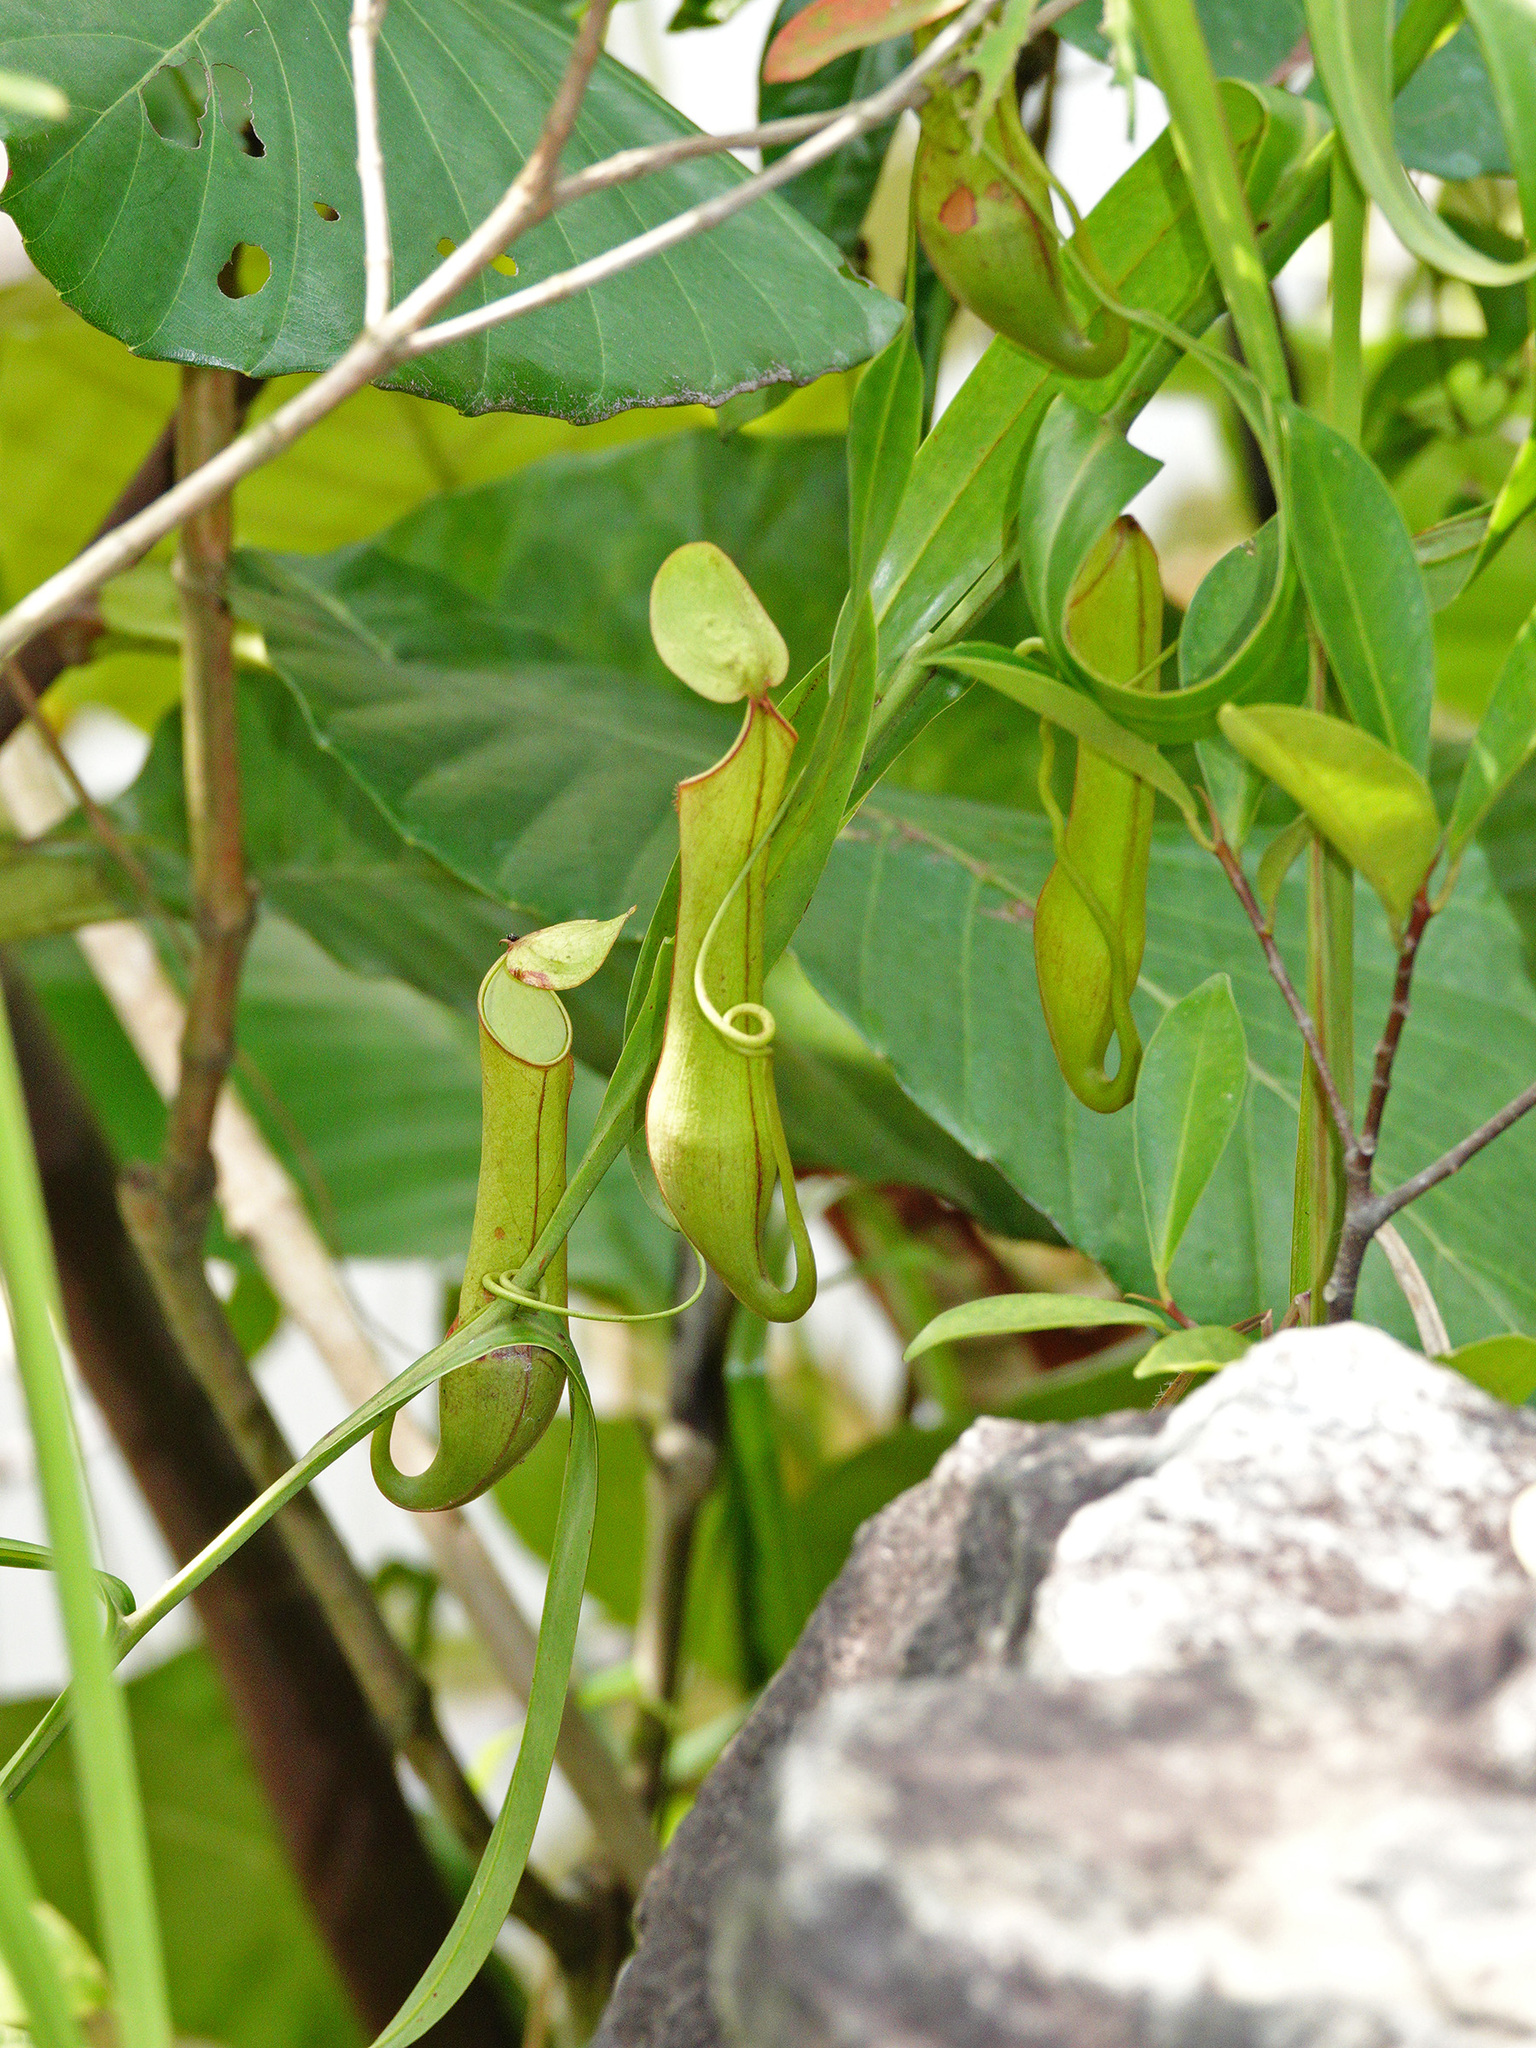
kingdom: Plantae
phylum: Tracheophyta
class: Magnoliopsida
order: Caryophyllales
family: Nepenthaceae
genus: Nepenthes
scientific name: Nepenthes gracilis
